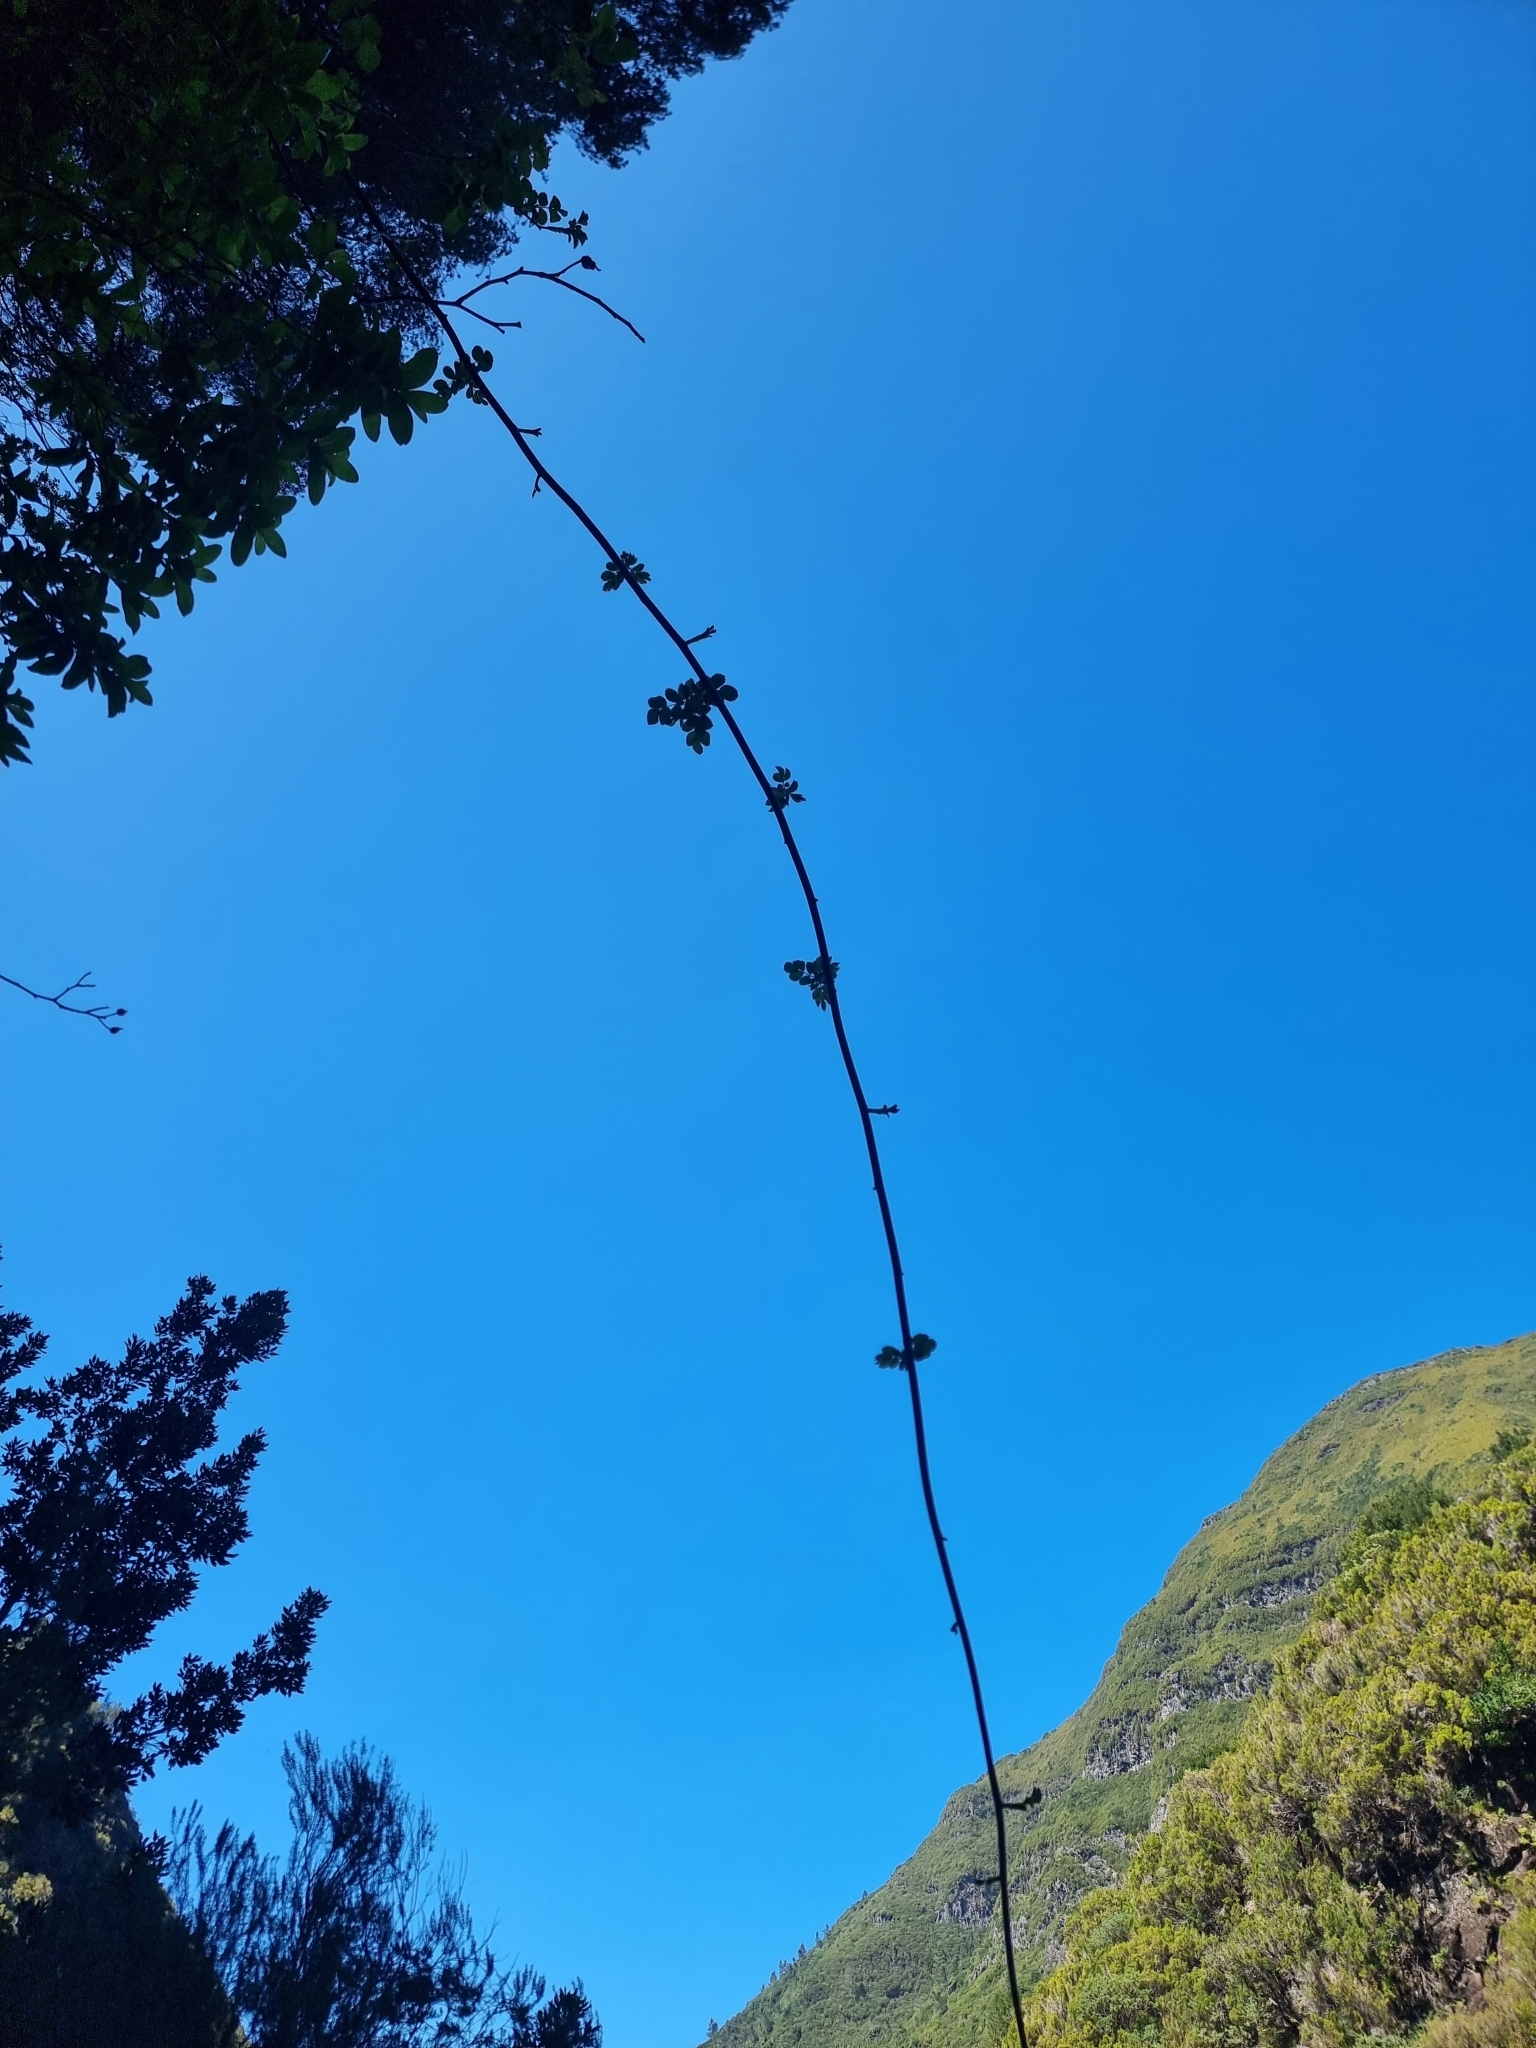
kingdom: Plantae
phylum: Tracheophyta
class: Magnoliopsida
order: Rosales
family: Rosaceae
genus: Rosa
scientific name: Rosa canina
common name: Dog rose
